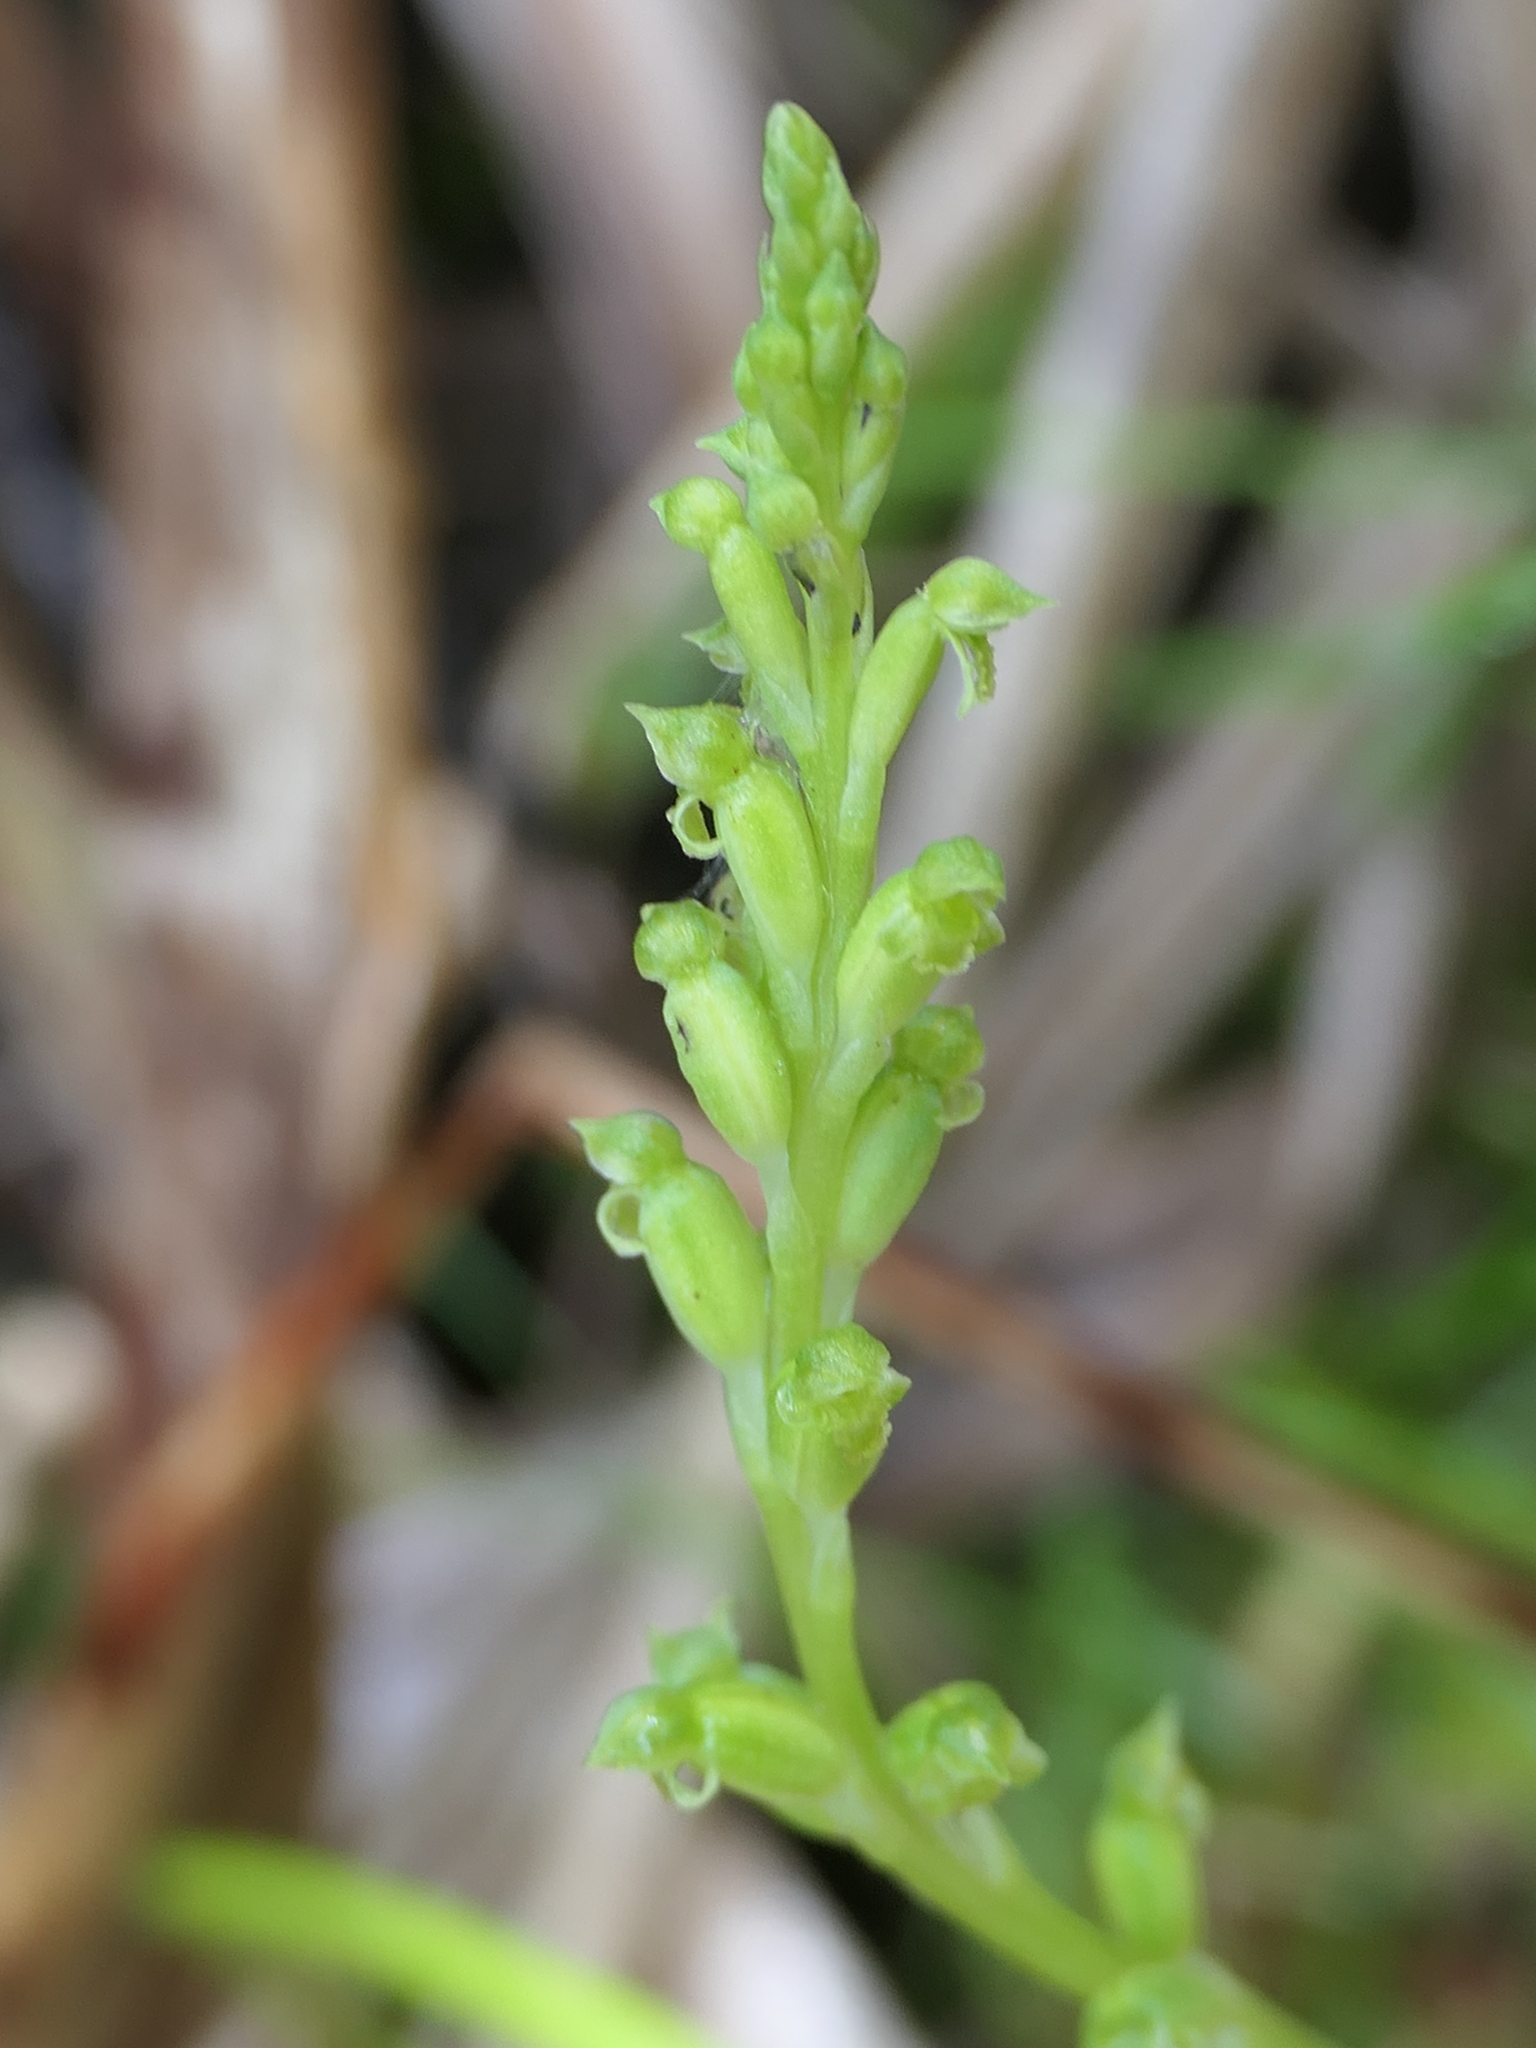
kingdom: Plantae
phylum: Tracheophyta
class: Liliopsida
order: Asparagales
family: Orchidaceae
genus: Microtis
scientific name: Microtis unifolia
